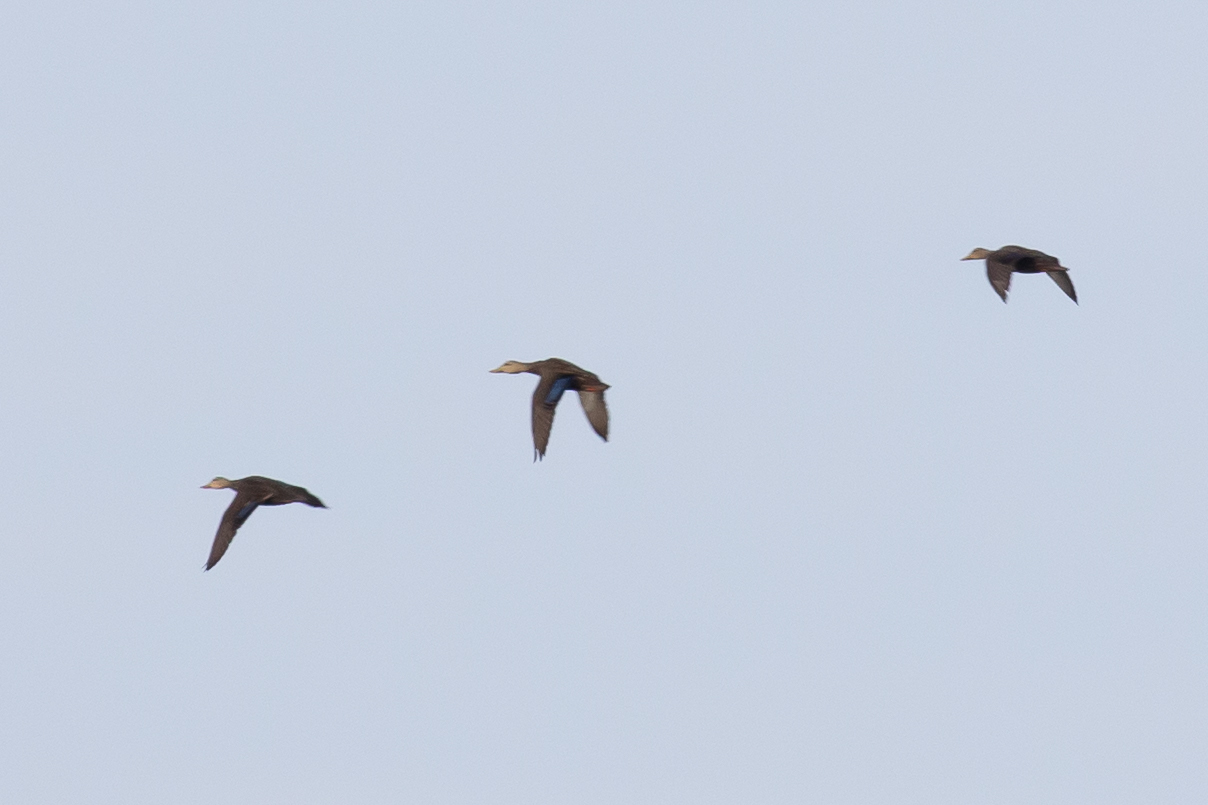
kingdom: Animalia
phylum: Chordata
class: Aves
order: Anseriformes
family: Anatidae
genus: Anas
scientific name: Anas fulvigula
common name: Mottled duck
